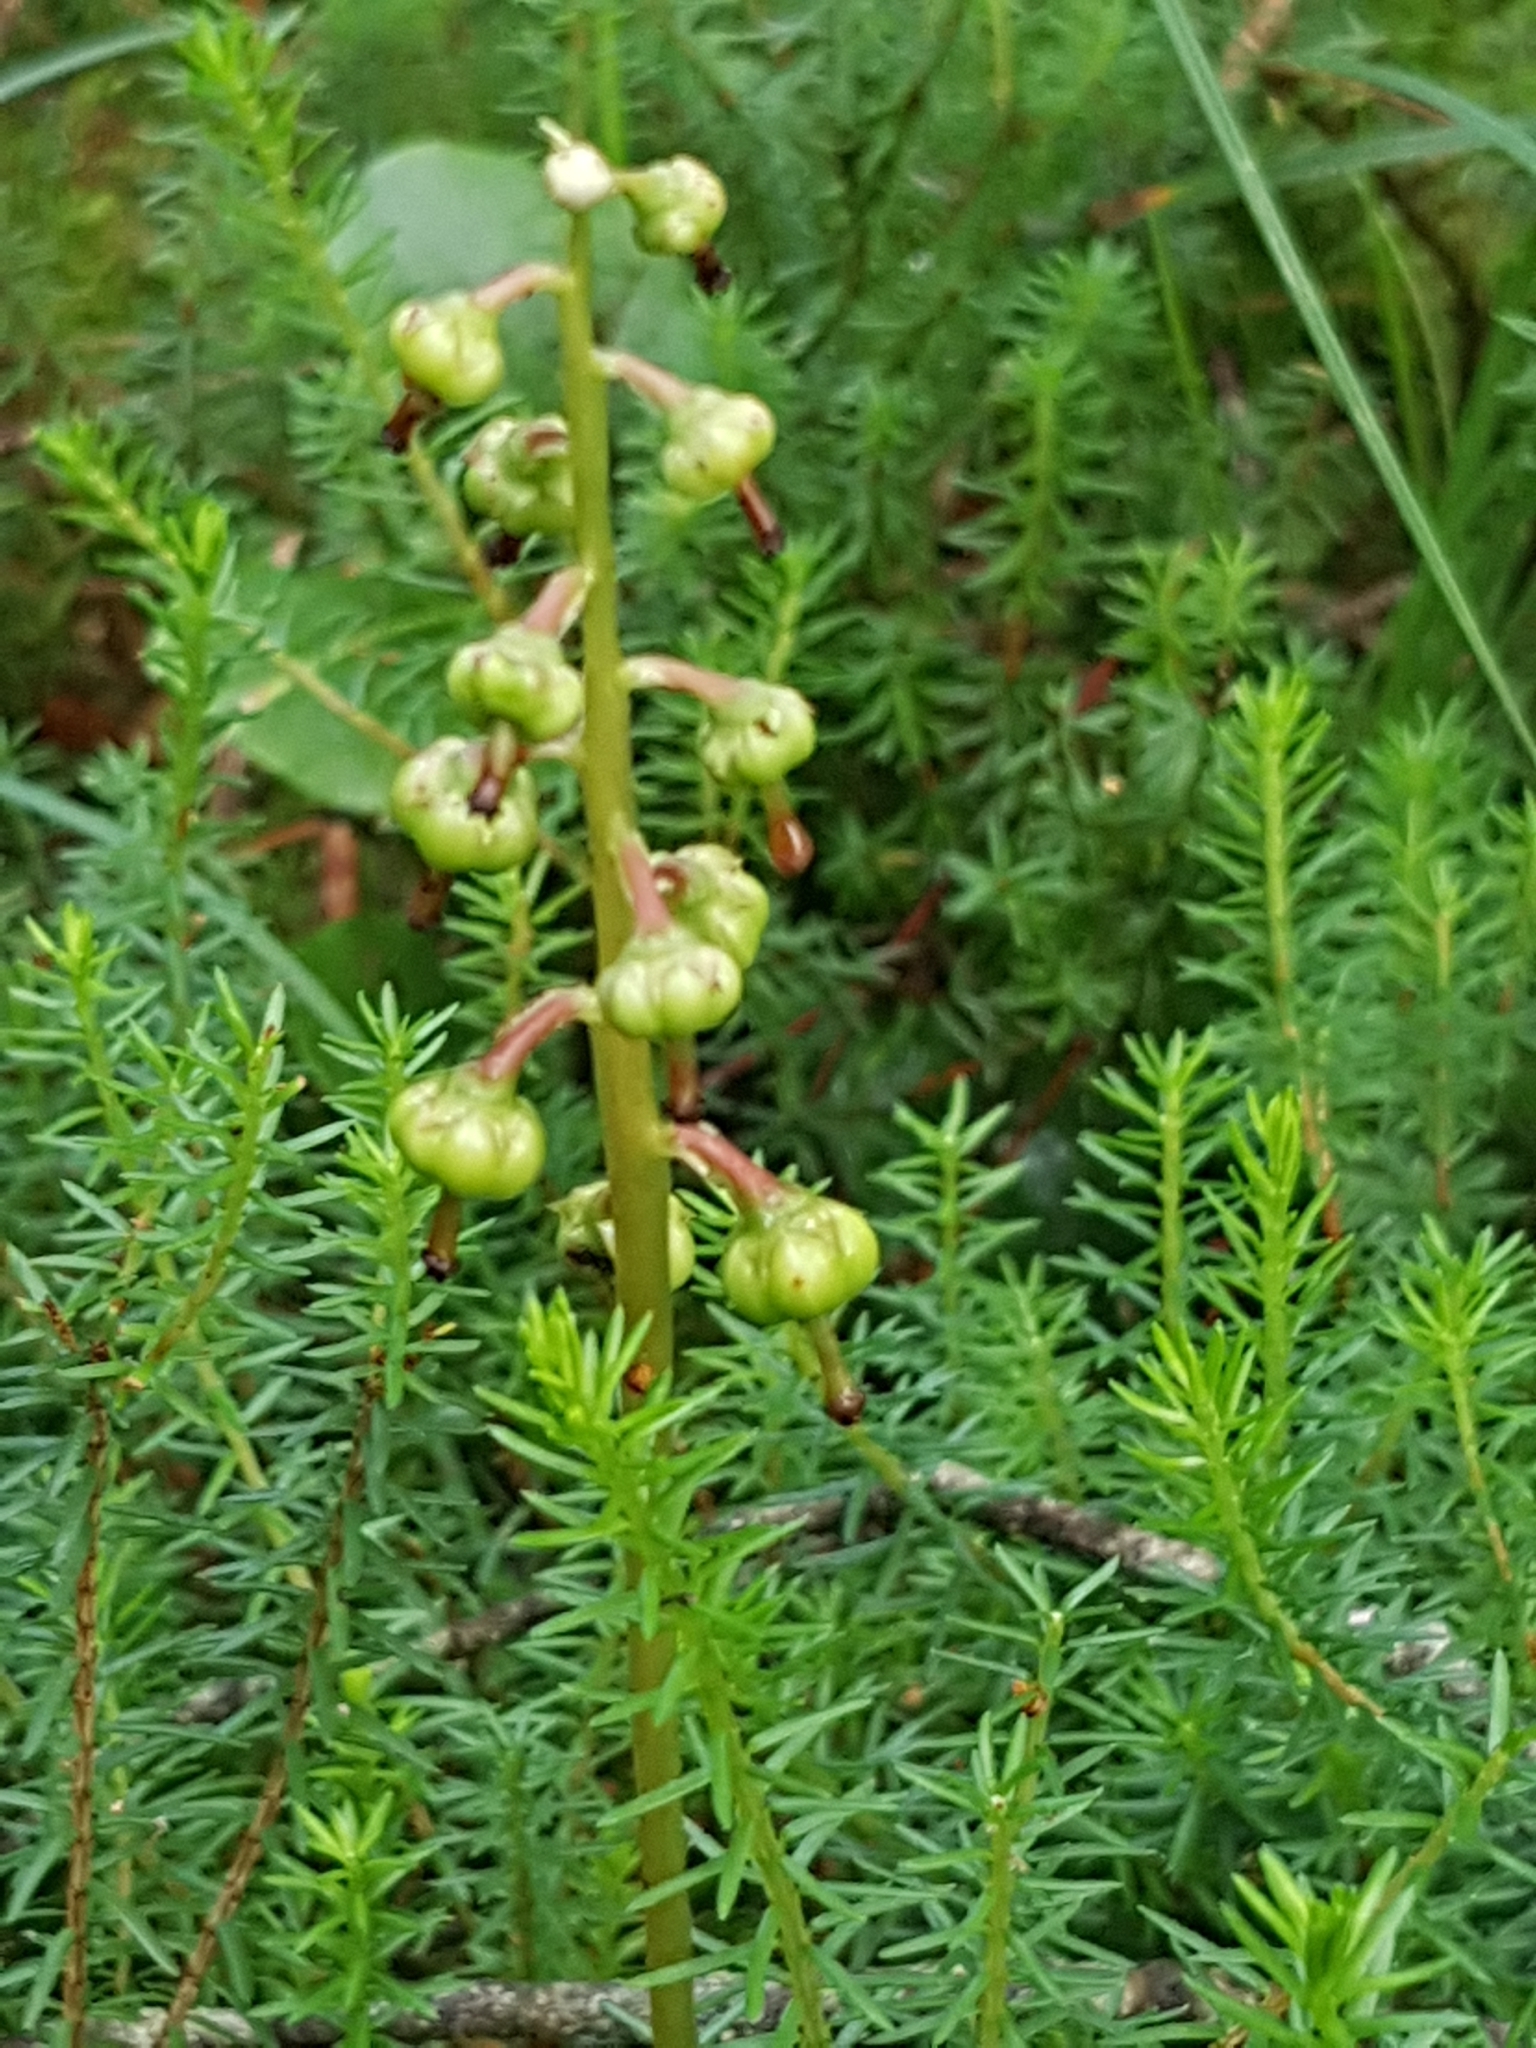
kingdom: Plantae
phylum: Tracheophyta
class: Magnoliopsida
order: Ericales
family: Ericaceae
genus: Pyrola
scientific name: Pyrola media
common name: Intermediate wintergreen
